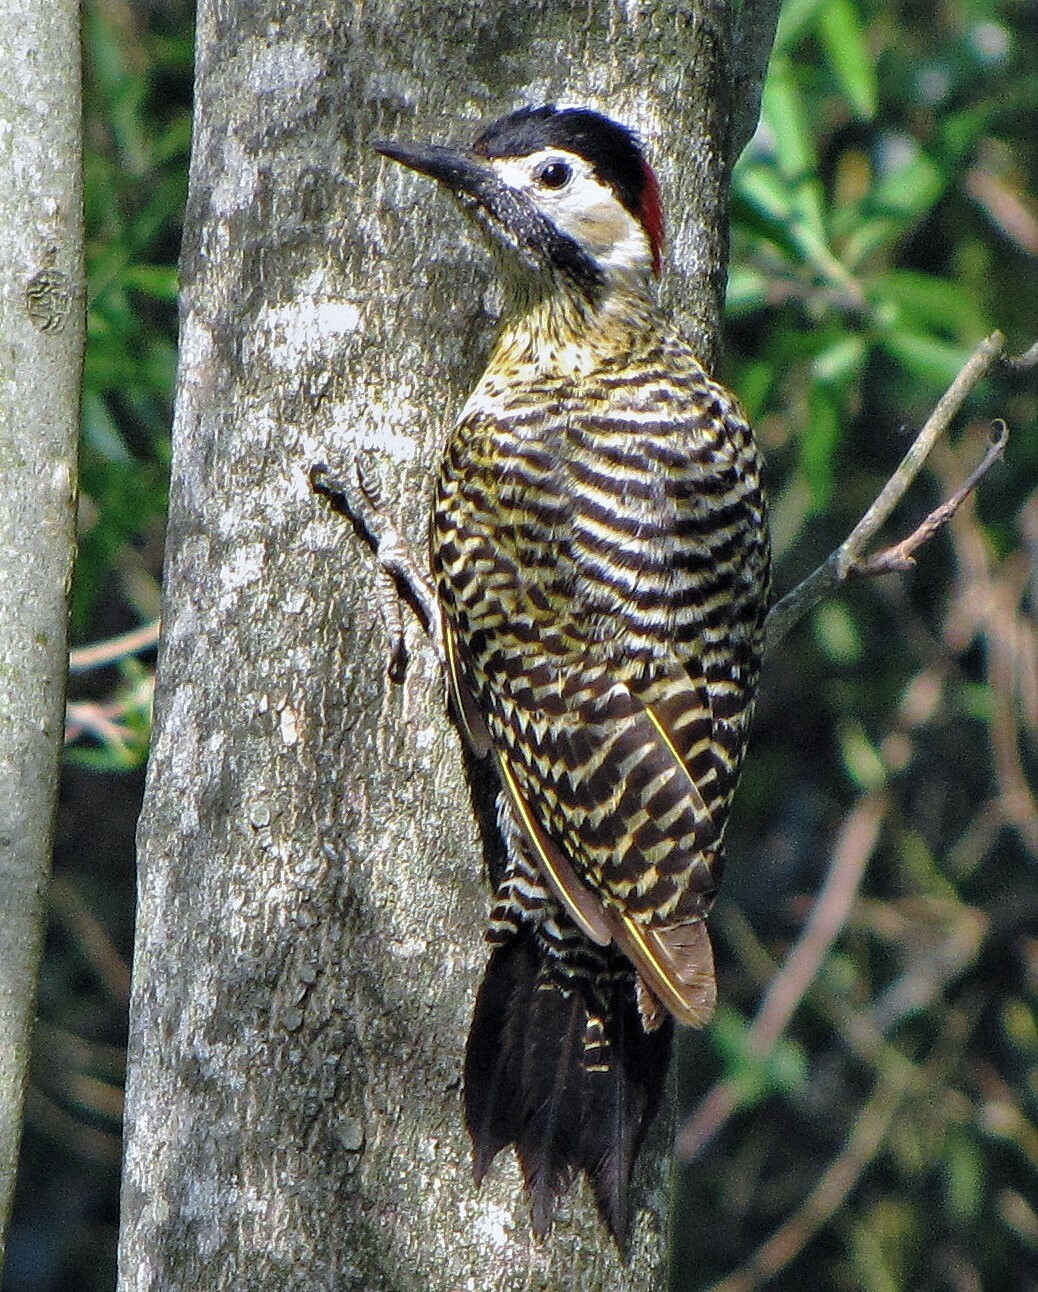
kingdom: Animalia
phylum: Chordata
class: Aves
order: Piciformes
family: Picidae
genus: Colaptes
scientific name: Colaptes melanochloros
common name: Green-barred woodpecker
